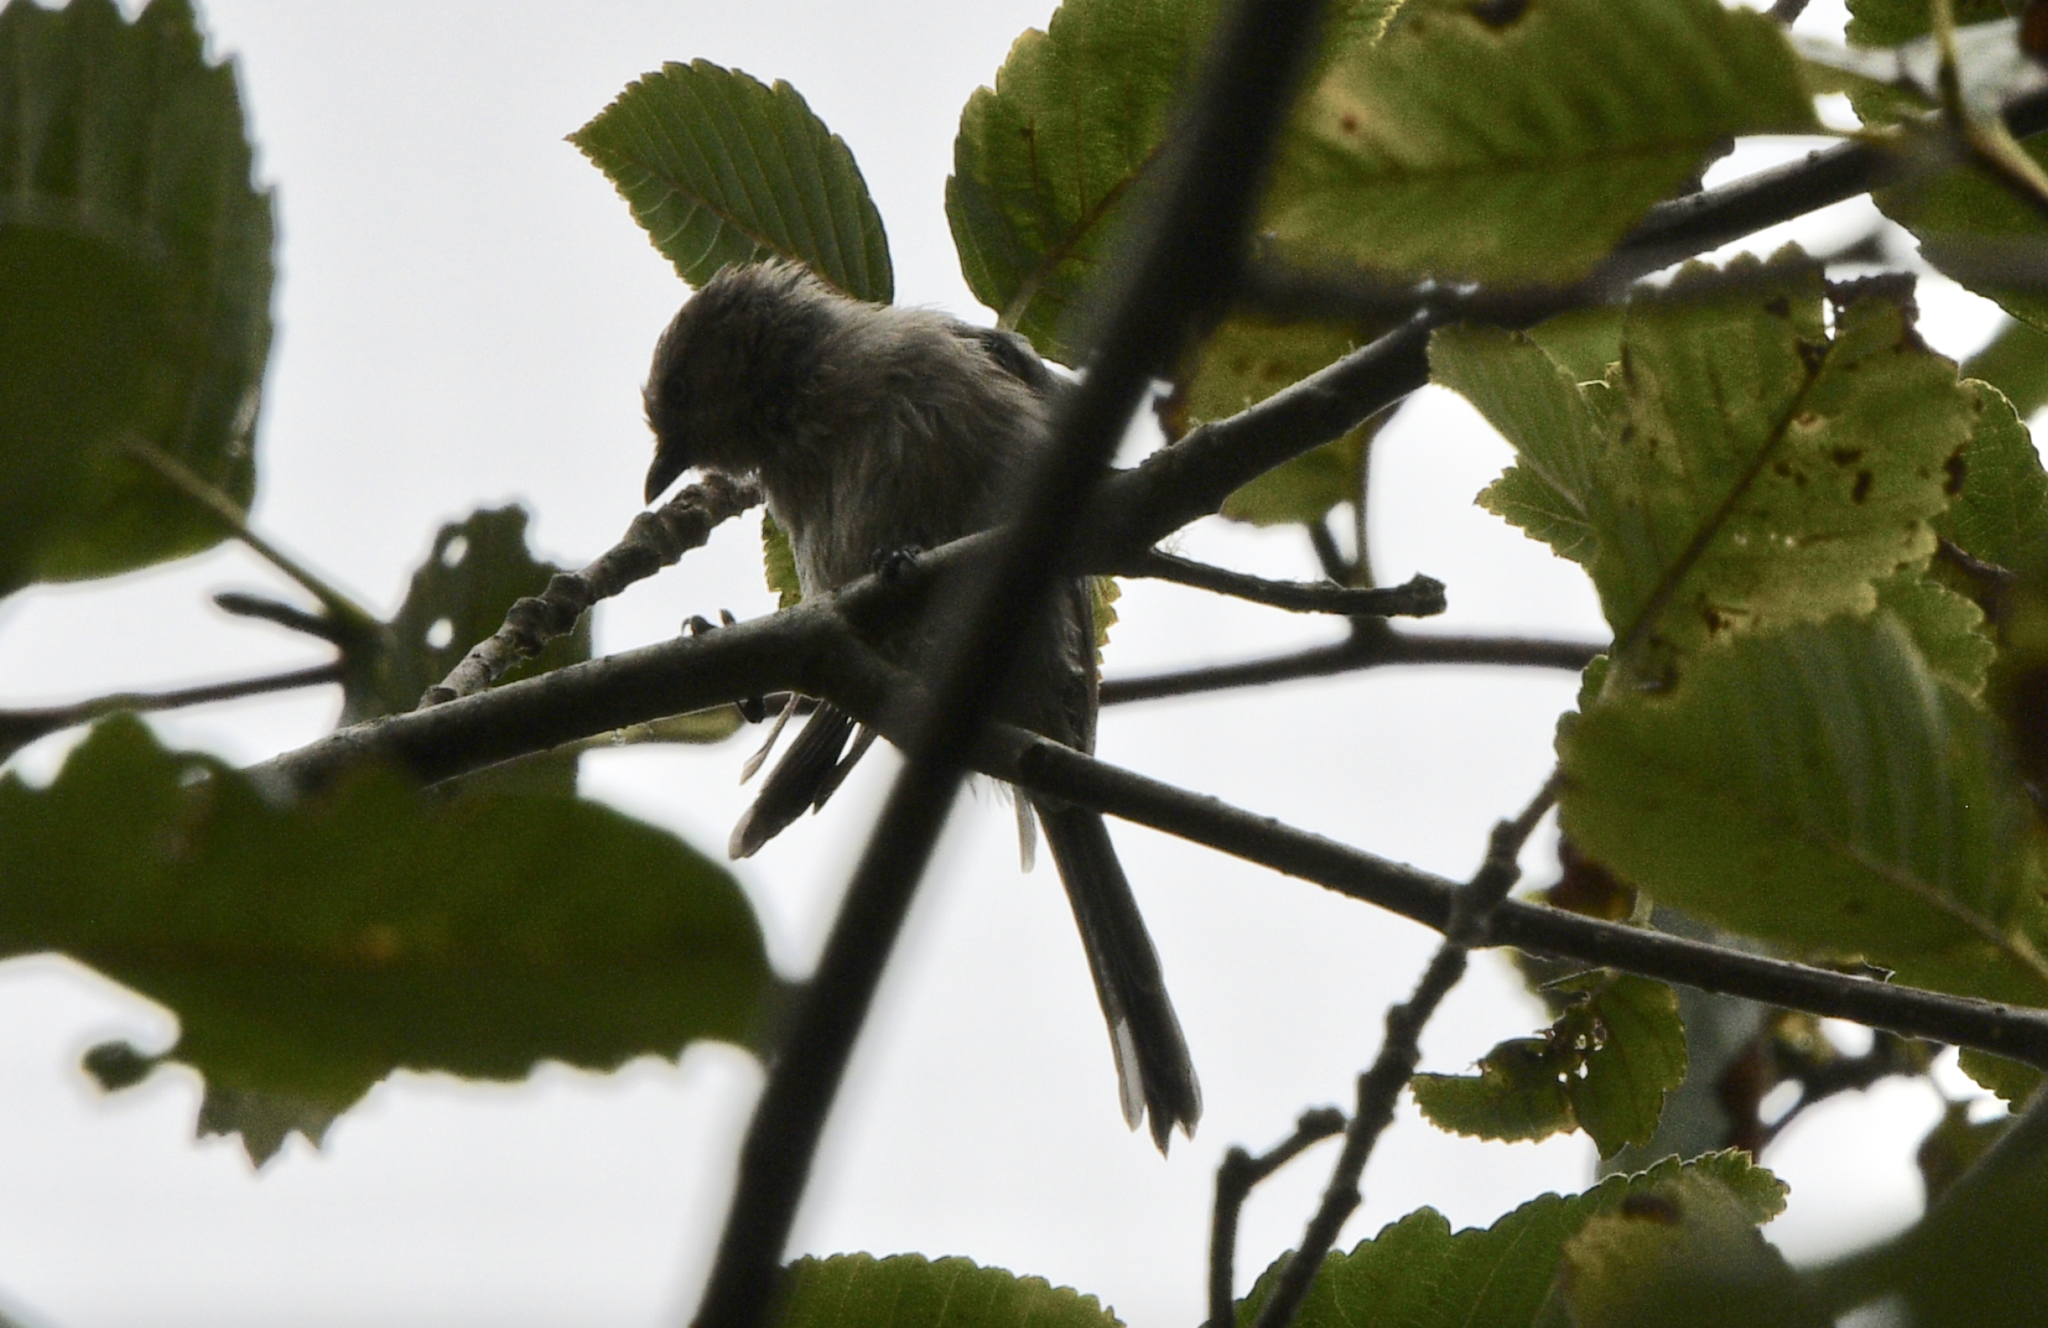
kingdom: Animalia
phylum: Chordata
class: Aves
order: Passeriformes
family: Aegithalidae
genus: Psaltriparus
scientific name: Psaltriparus minimus
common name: American bushtit
